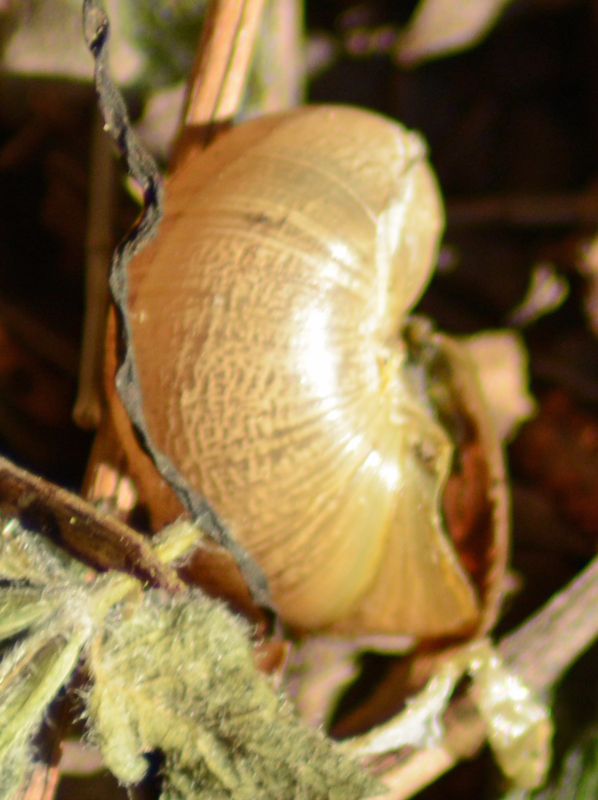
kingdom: Animalia
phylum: Mollusca
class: Gastropoda
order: Stylommatophora
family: Helicidae
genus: Cornu
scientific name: Cornu aspersum
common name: Brown garden snail
